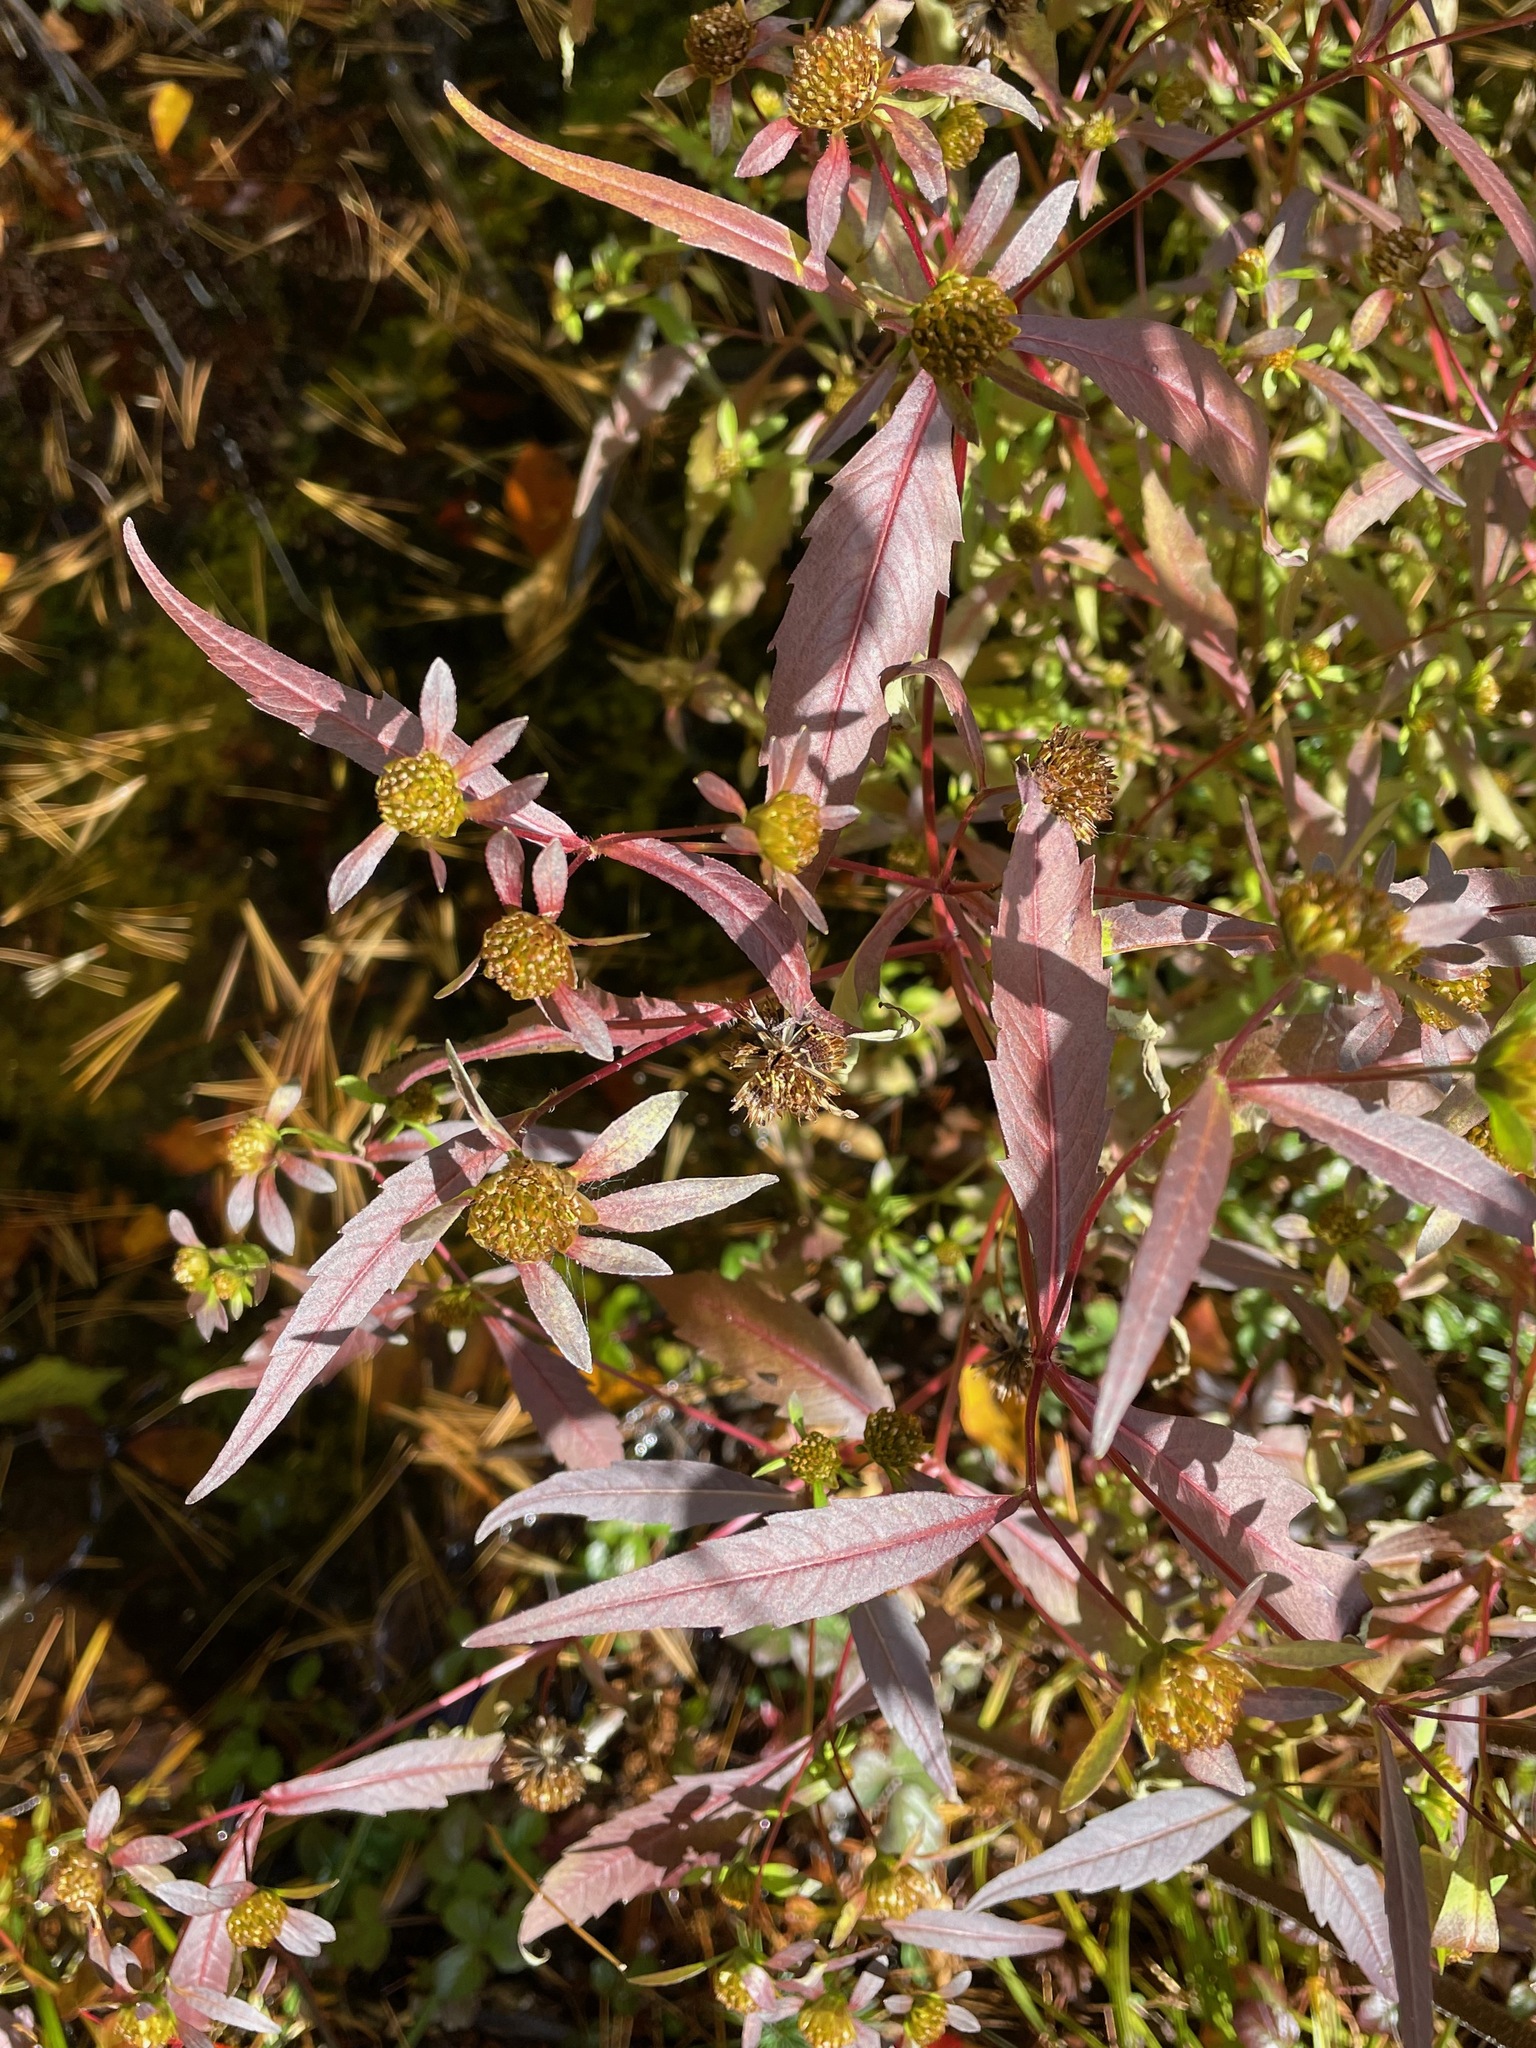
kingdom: Plantae
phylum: Tracheophyta
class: Magnoliopsida
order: Asterales
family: Asteraceae
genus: Bidens
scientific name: Bidens connata
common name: London bur-marigold
